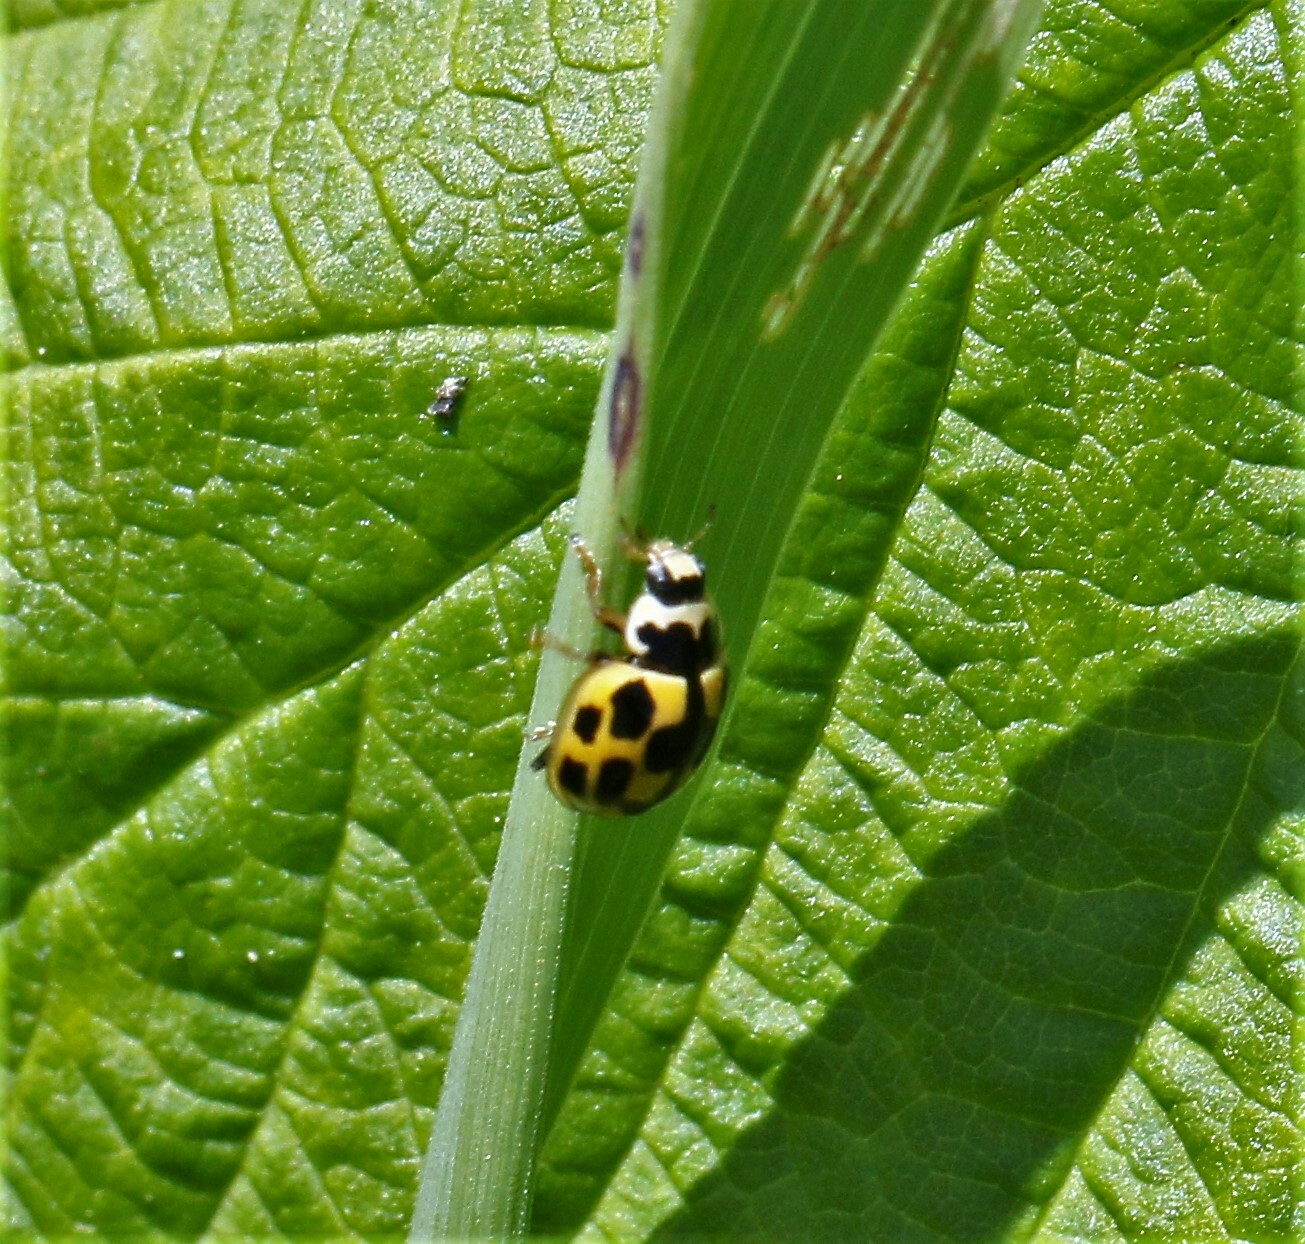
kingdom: Animalia
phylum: Arthropoda
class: Insecta
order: Coleoptera
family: Coccinellidae
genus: Propylaea
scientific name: Propylaea quatuordecimpunctata
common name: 14-spotted ladybird beetle
